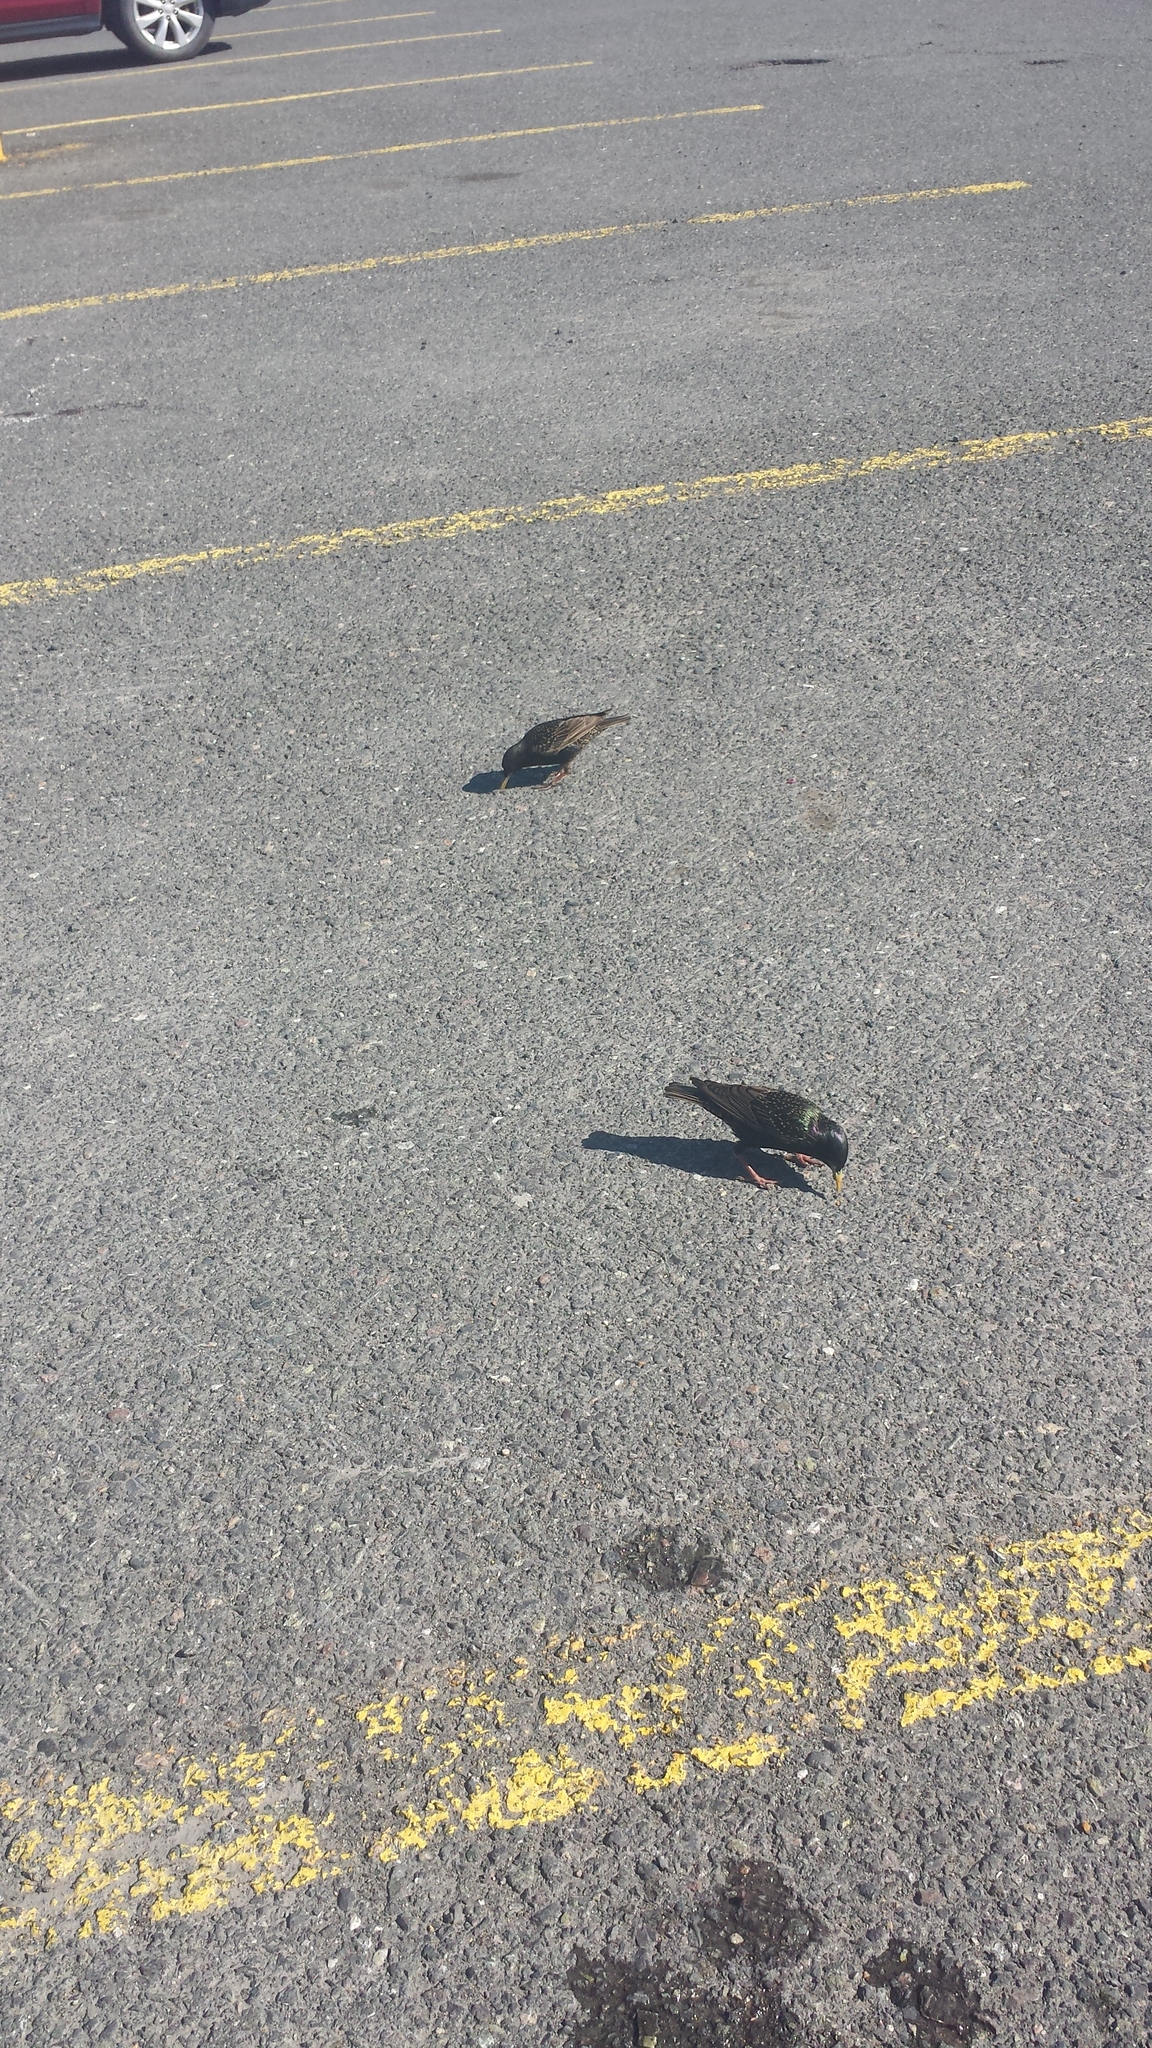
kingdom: Animalia
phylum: Chordata
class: Aves
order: Passeriformes
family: Sturnidae
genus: Sturnus
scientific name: Sturnus vulgaris
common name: Common starling
